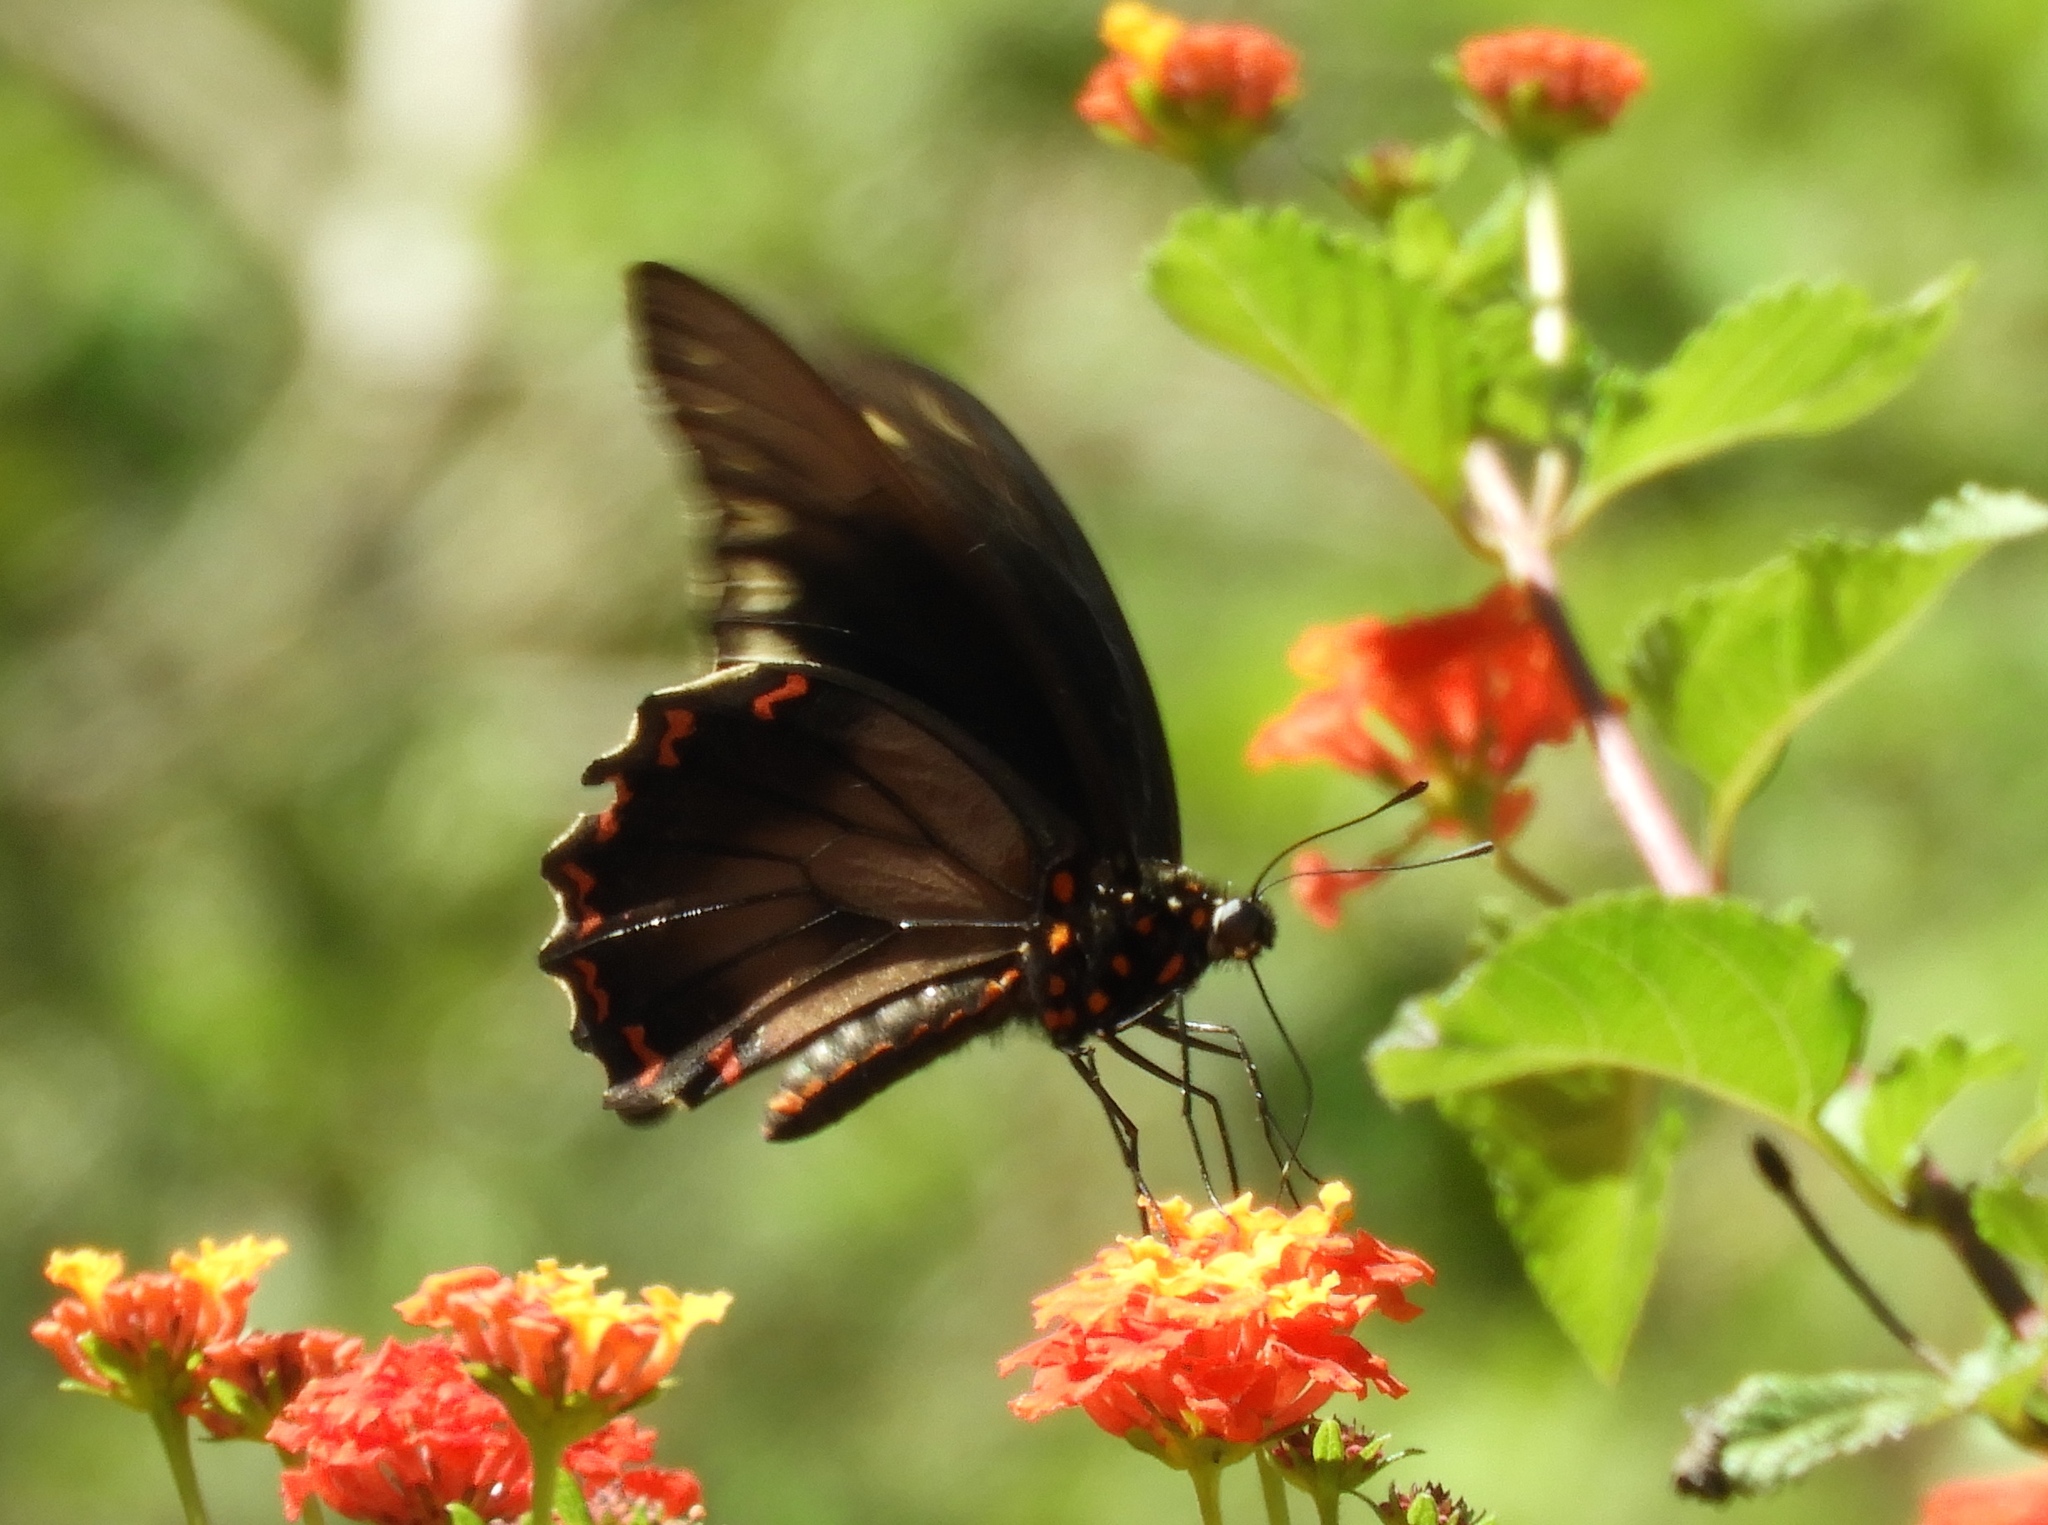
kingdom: Animalia
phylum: Arthropoda
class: Insecta
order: Lepidoptera
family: Papilionidae
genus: Battus
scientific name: Battus polydamas
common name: Polydamas swallowtail
